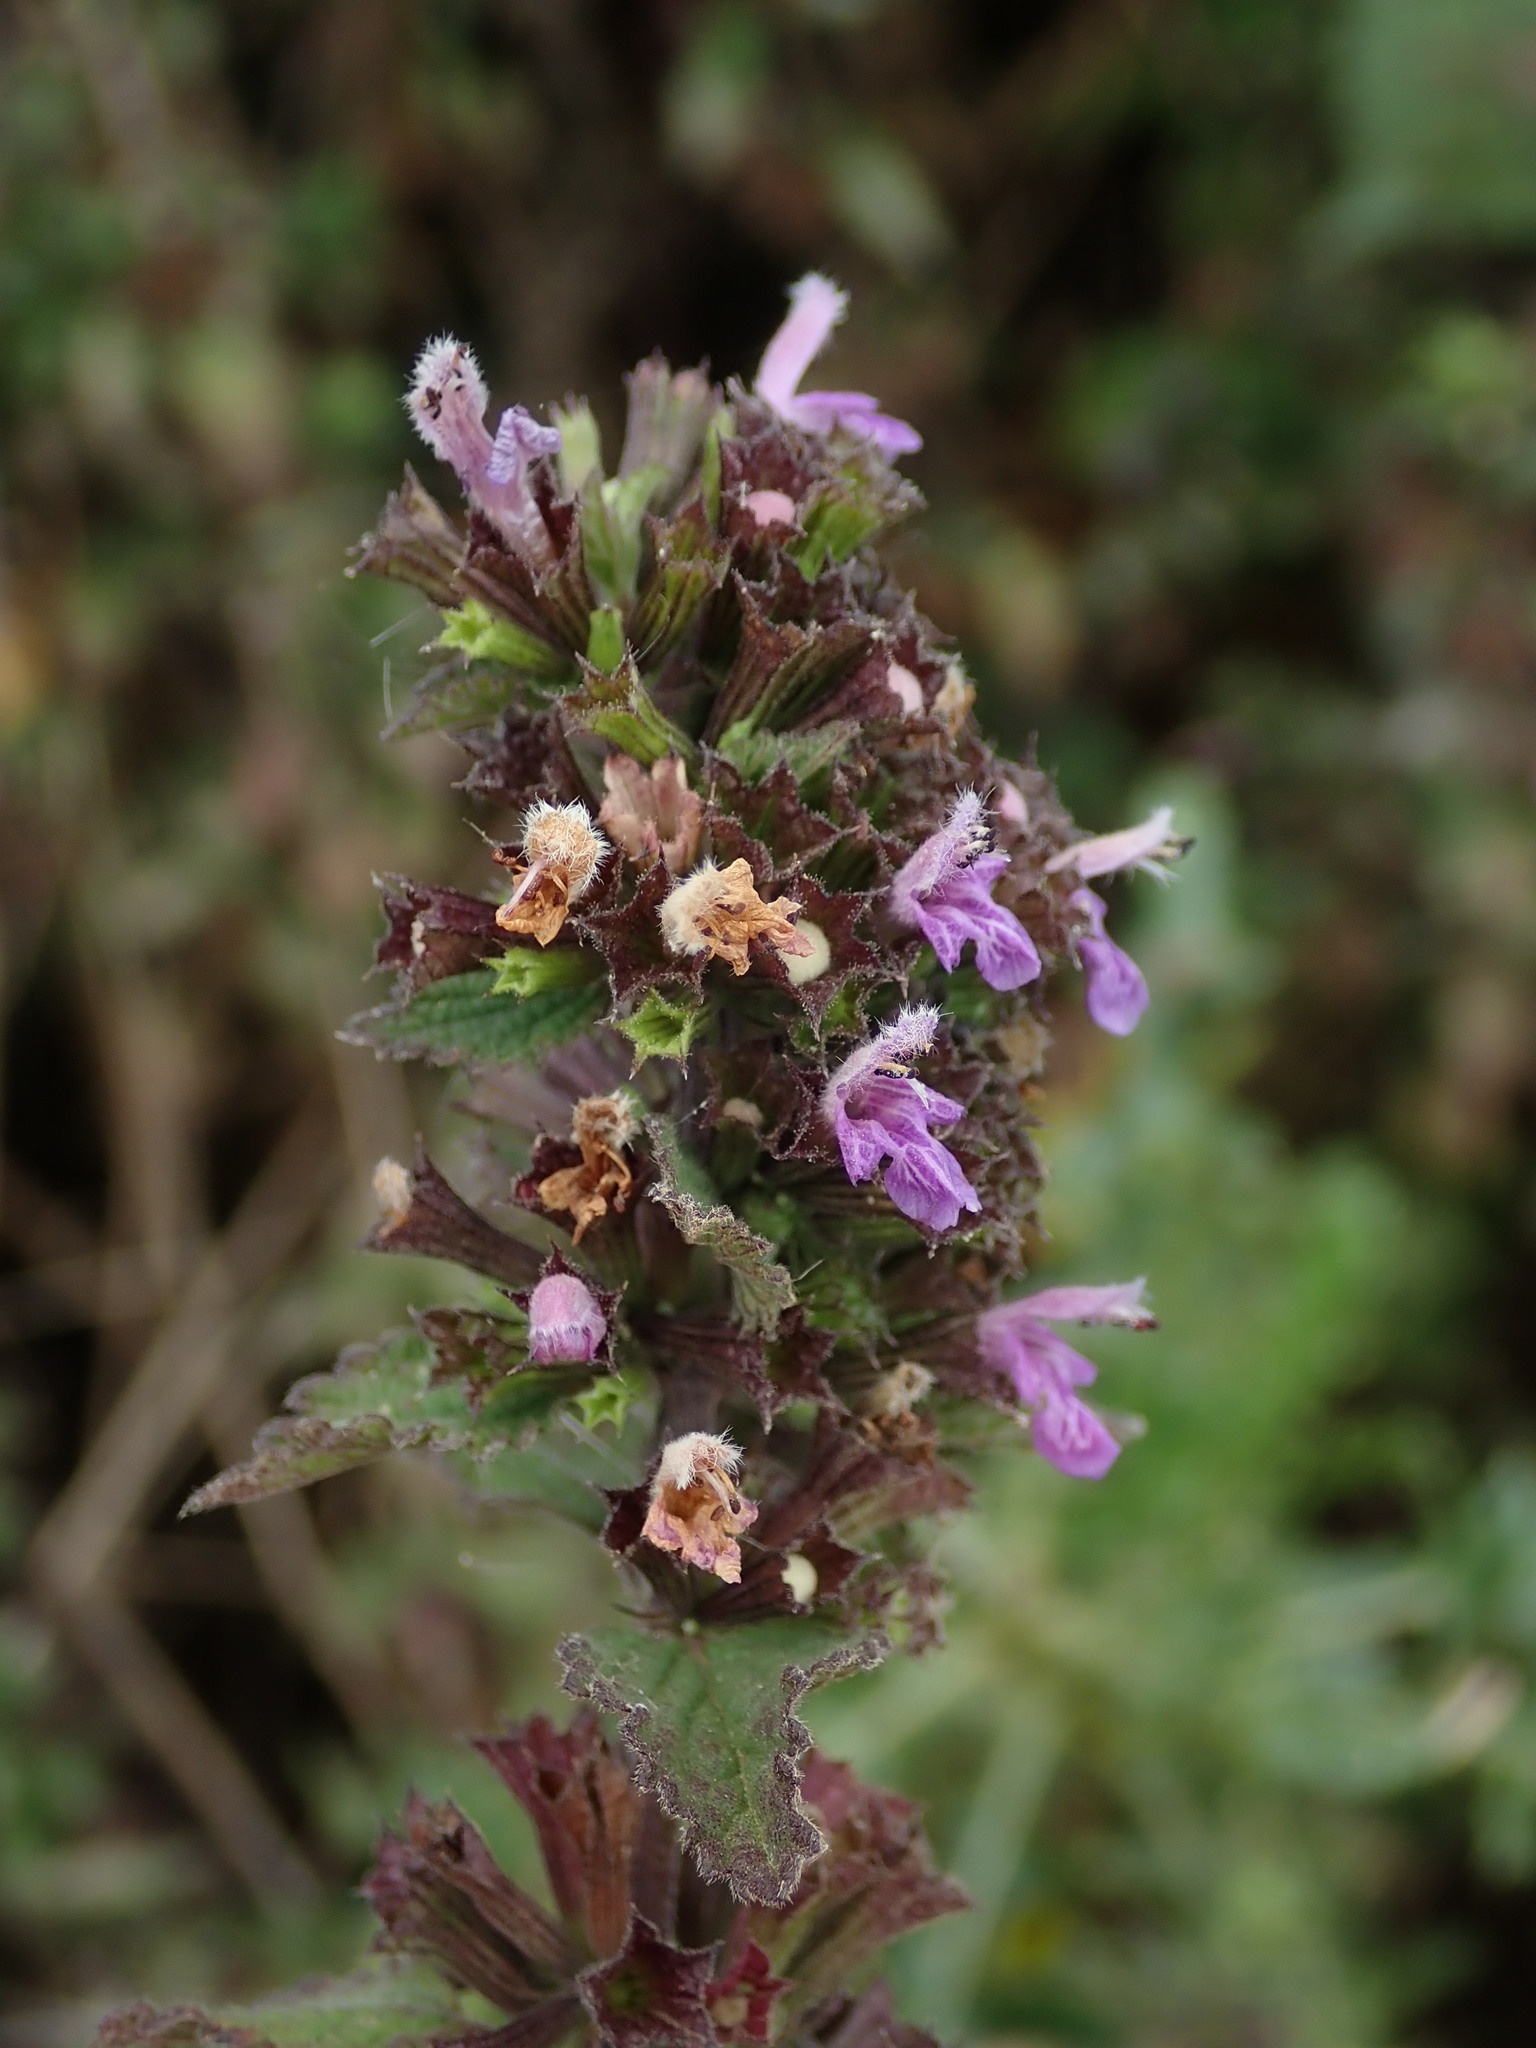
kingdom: Plantae
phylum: Tracheophyta
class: Magnoliopsida
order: Lamiales
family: Lamiaceae
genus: Ballota
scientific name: Ballota nigra
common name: Black horehound
